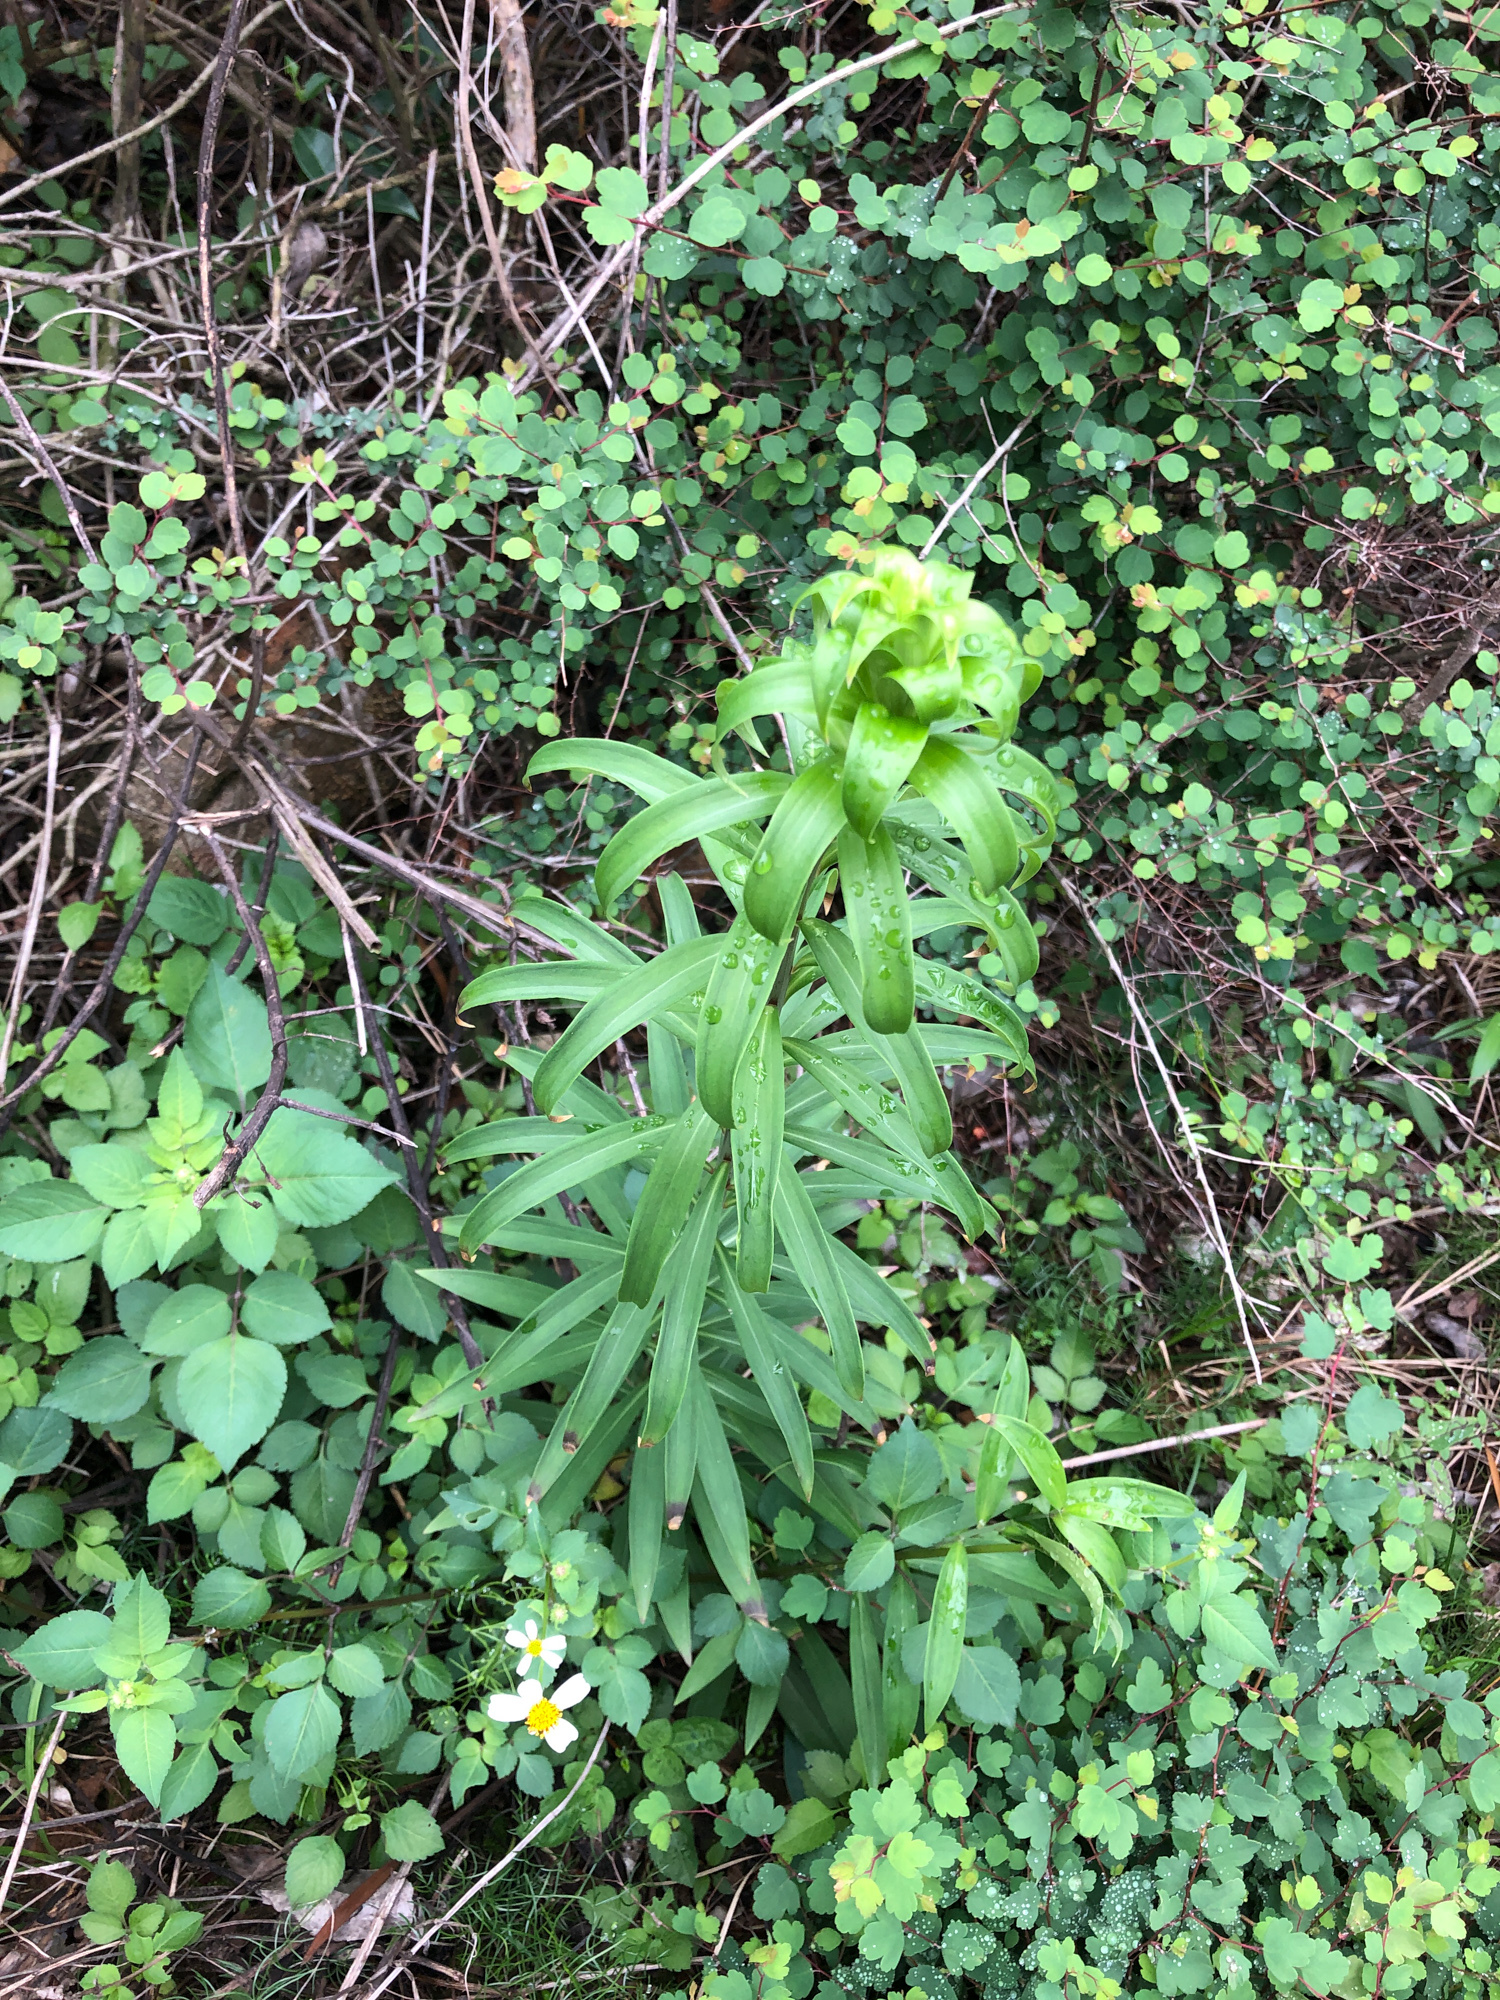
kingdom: Plantae
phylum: Tracheophyta
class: Liliopsida
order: Liliales
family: Liliaceae
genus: Lilium
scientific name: Lilium brownii
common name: Brown's lily
